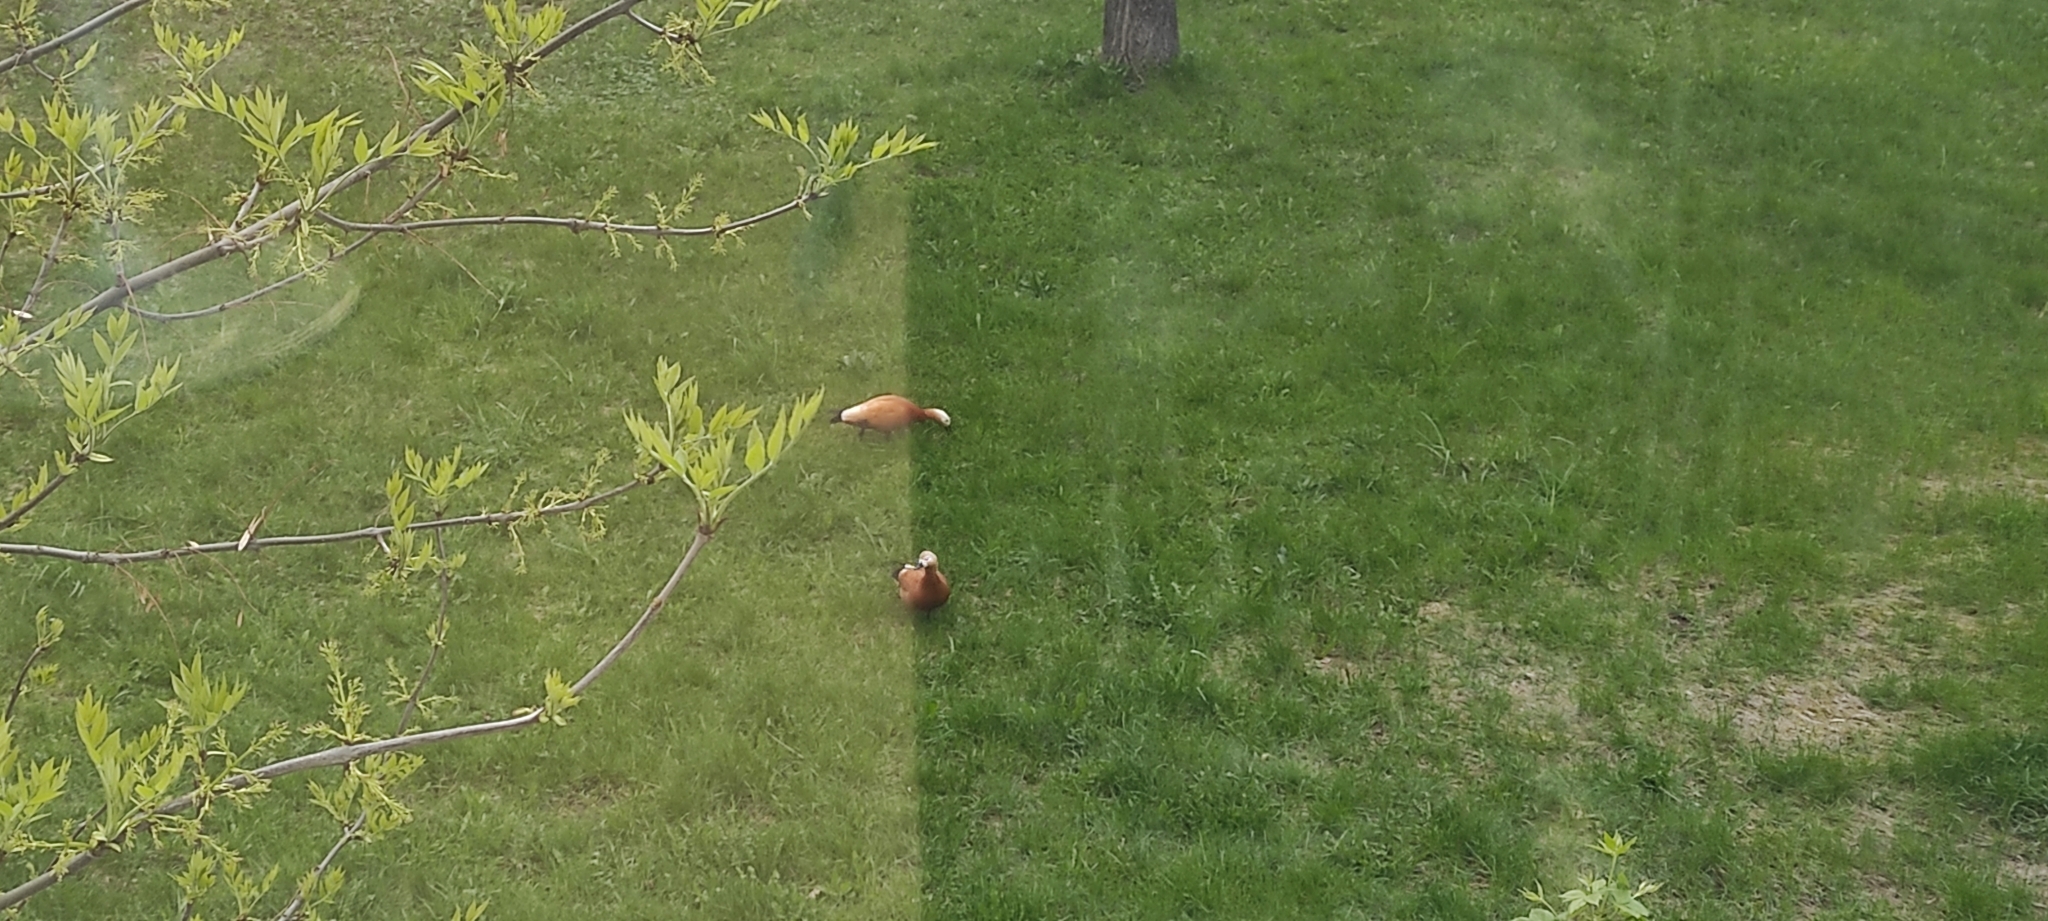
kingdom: Animalia
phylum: Chordata
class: Aves
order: Anseriformes
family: Anatidae
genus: Tadorna
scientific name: Tadorna ferruginea
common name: Ruddy shelduck
